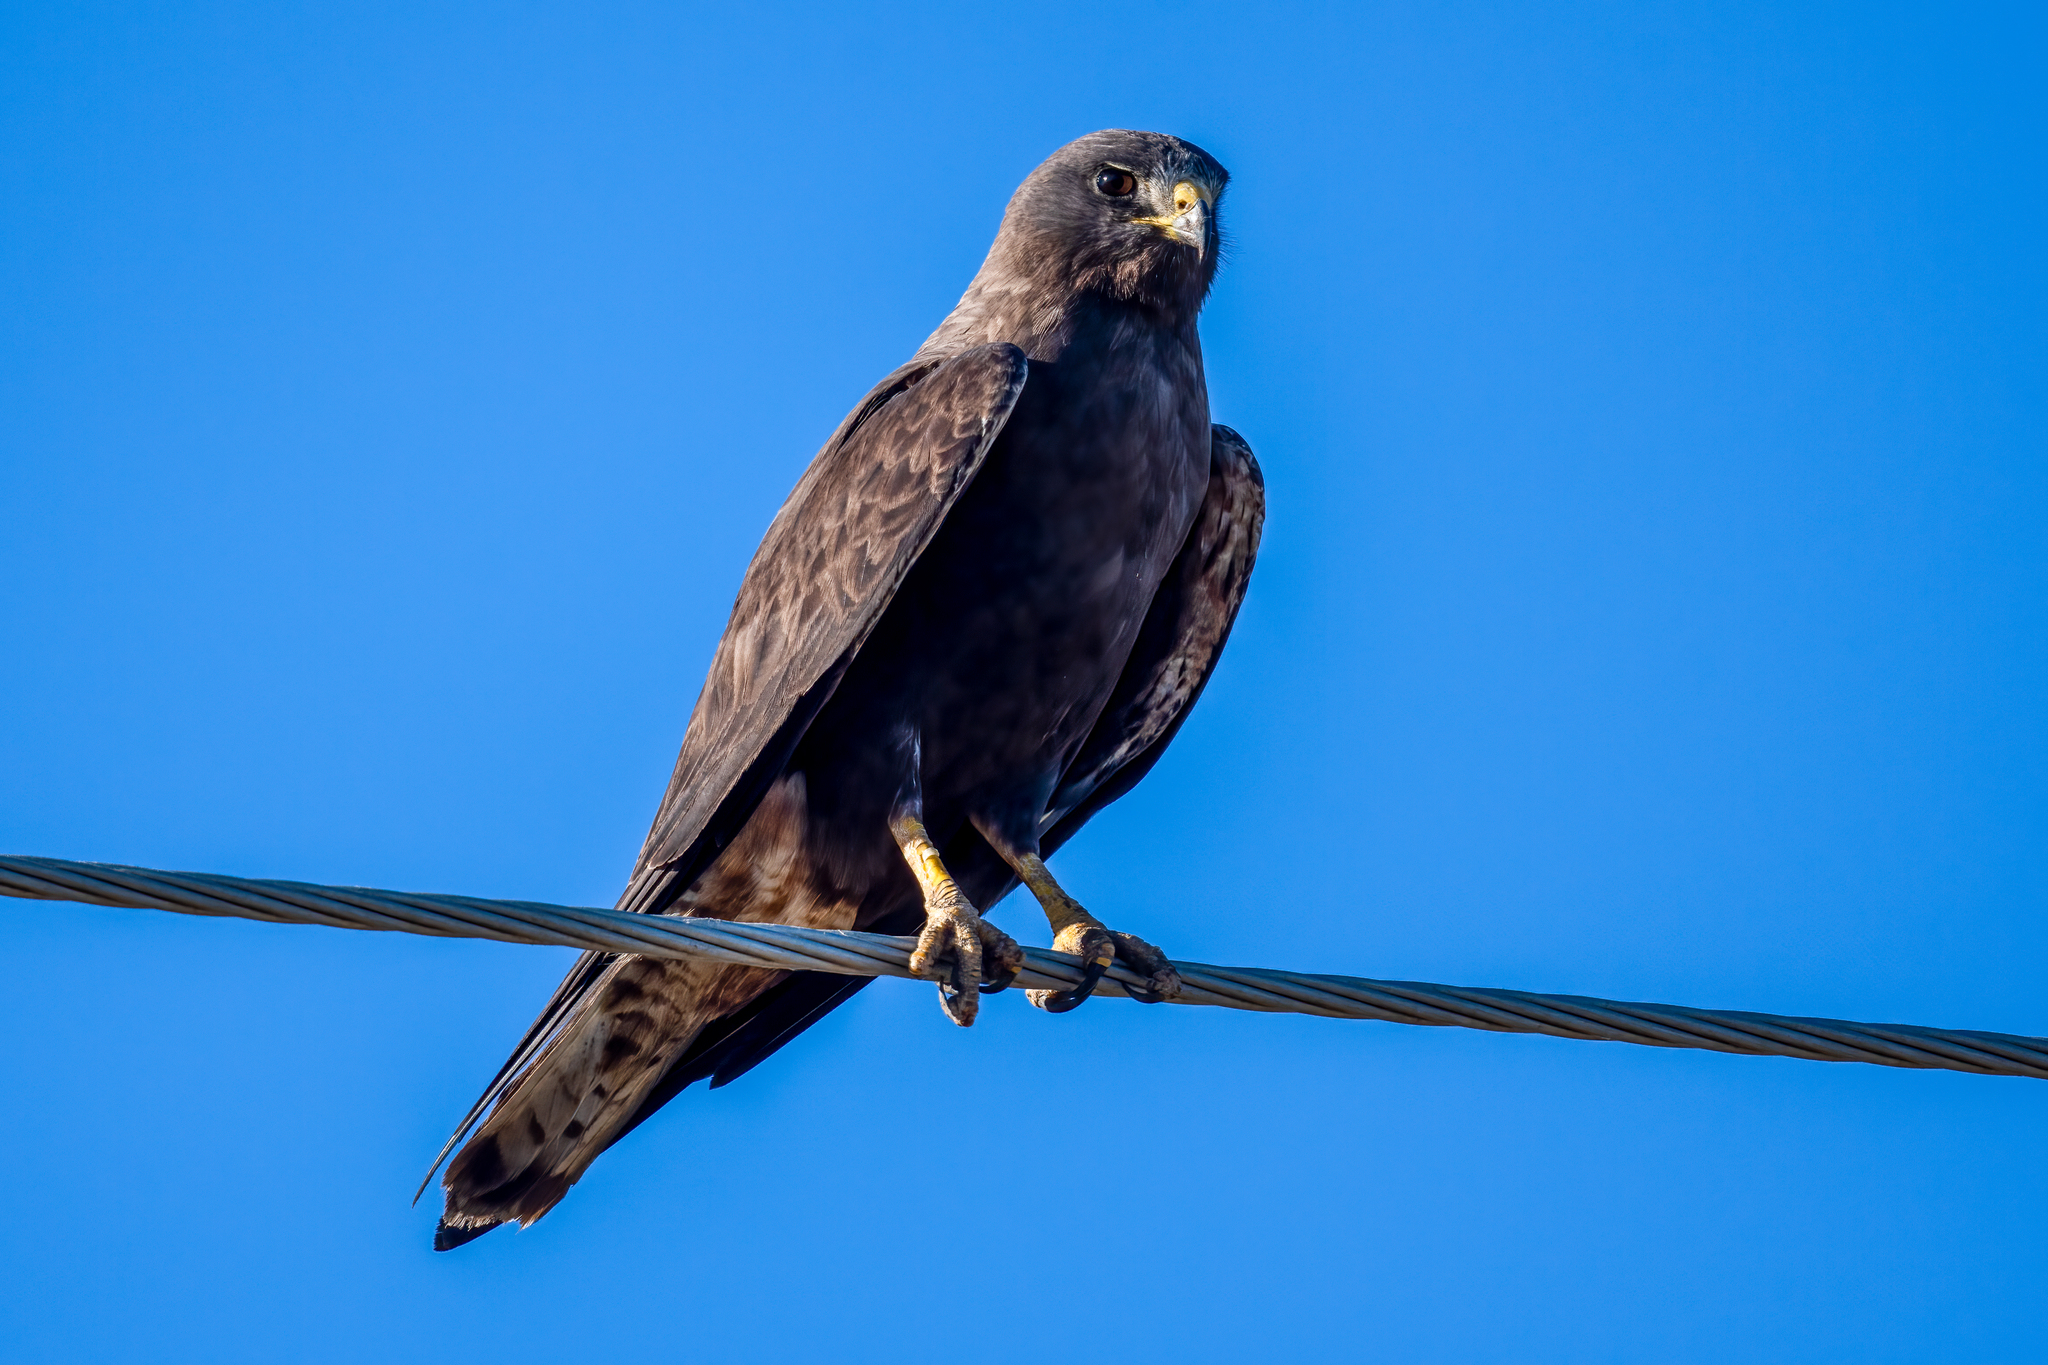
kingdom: Animalia
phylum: Chordata
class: Aves
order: Accipitriformes
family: Accipitridae
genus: Buteo
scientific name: Buteo swainsoni
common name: Swainson's hawk
